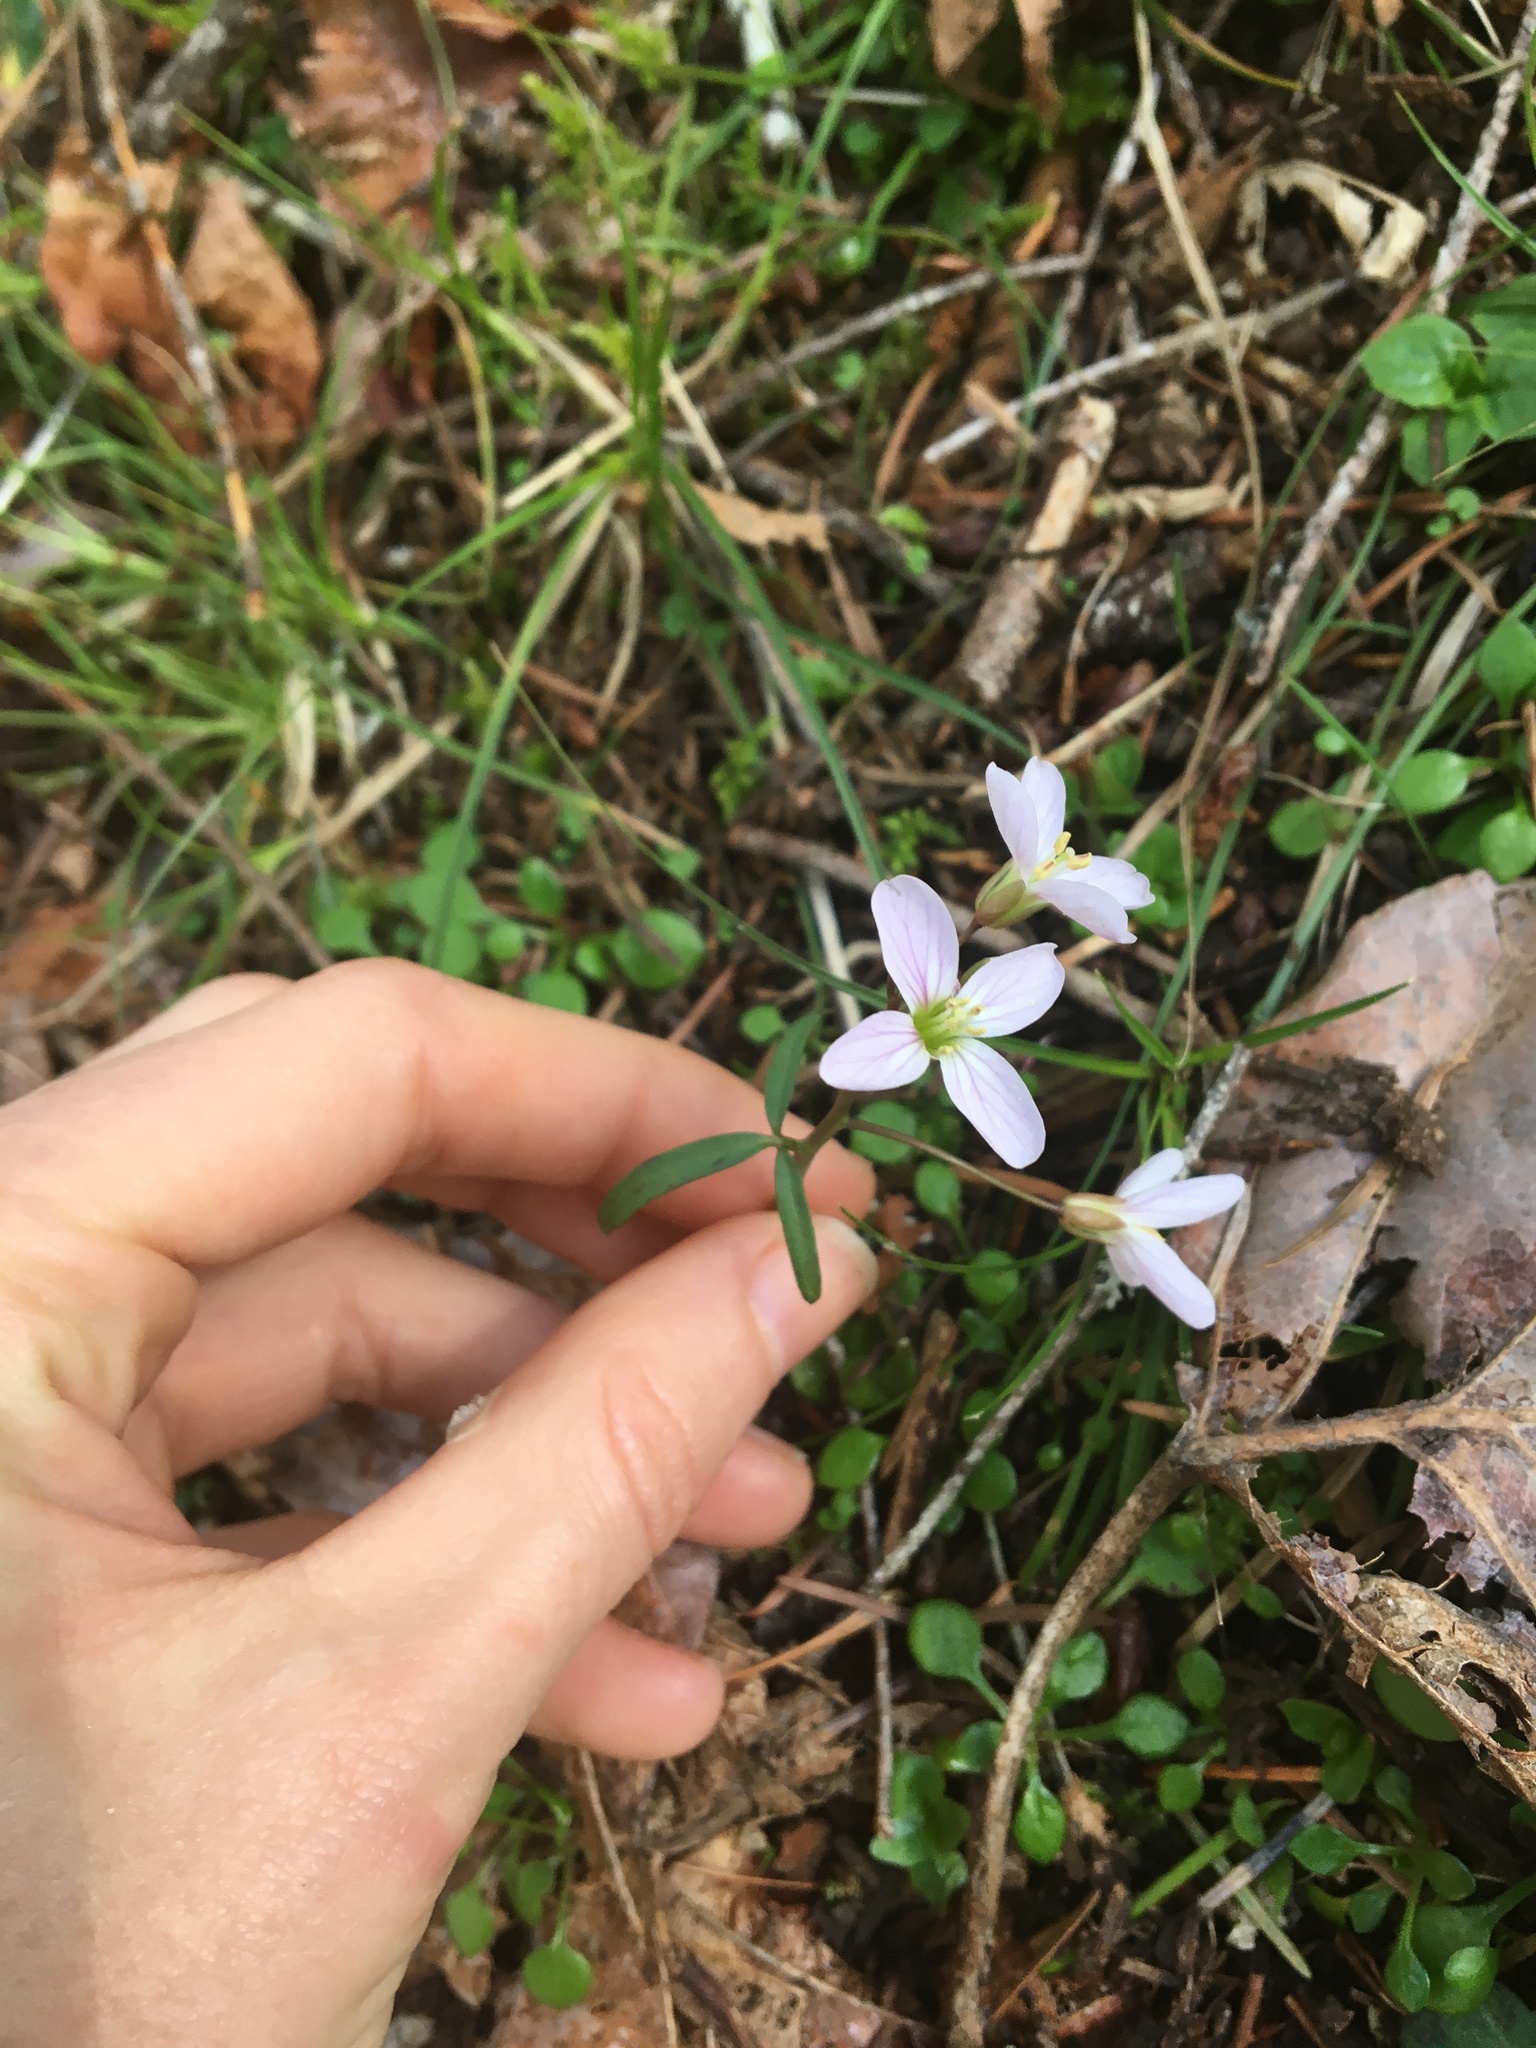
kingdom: Plantae
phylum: Tracheophyta
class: Magnoliopsida
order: Brassicales
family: Brassicaceae
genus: Cardamine
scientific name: Cardamine nuttallii
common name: Nuttall's toothwort
